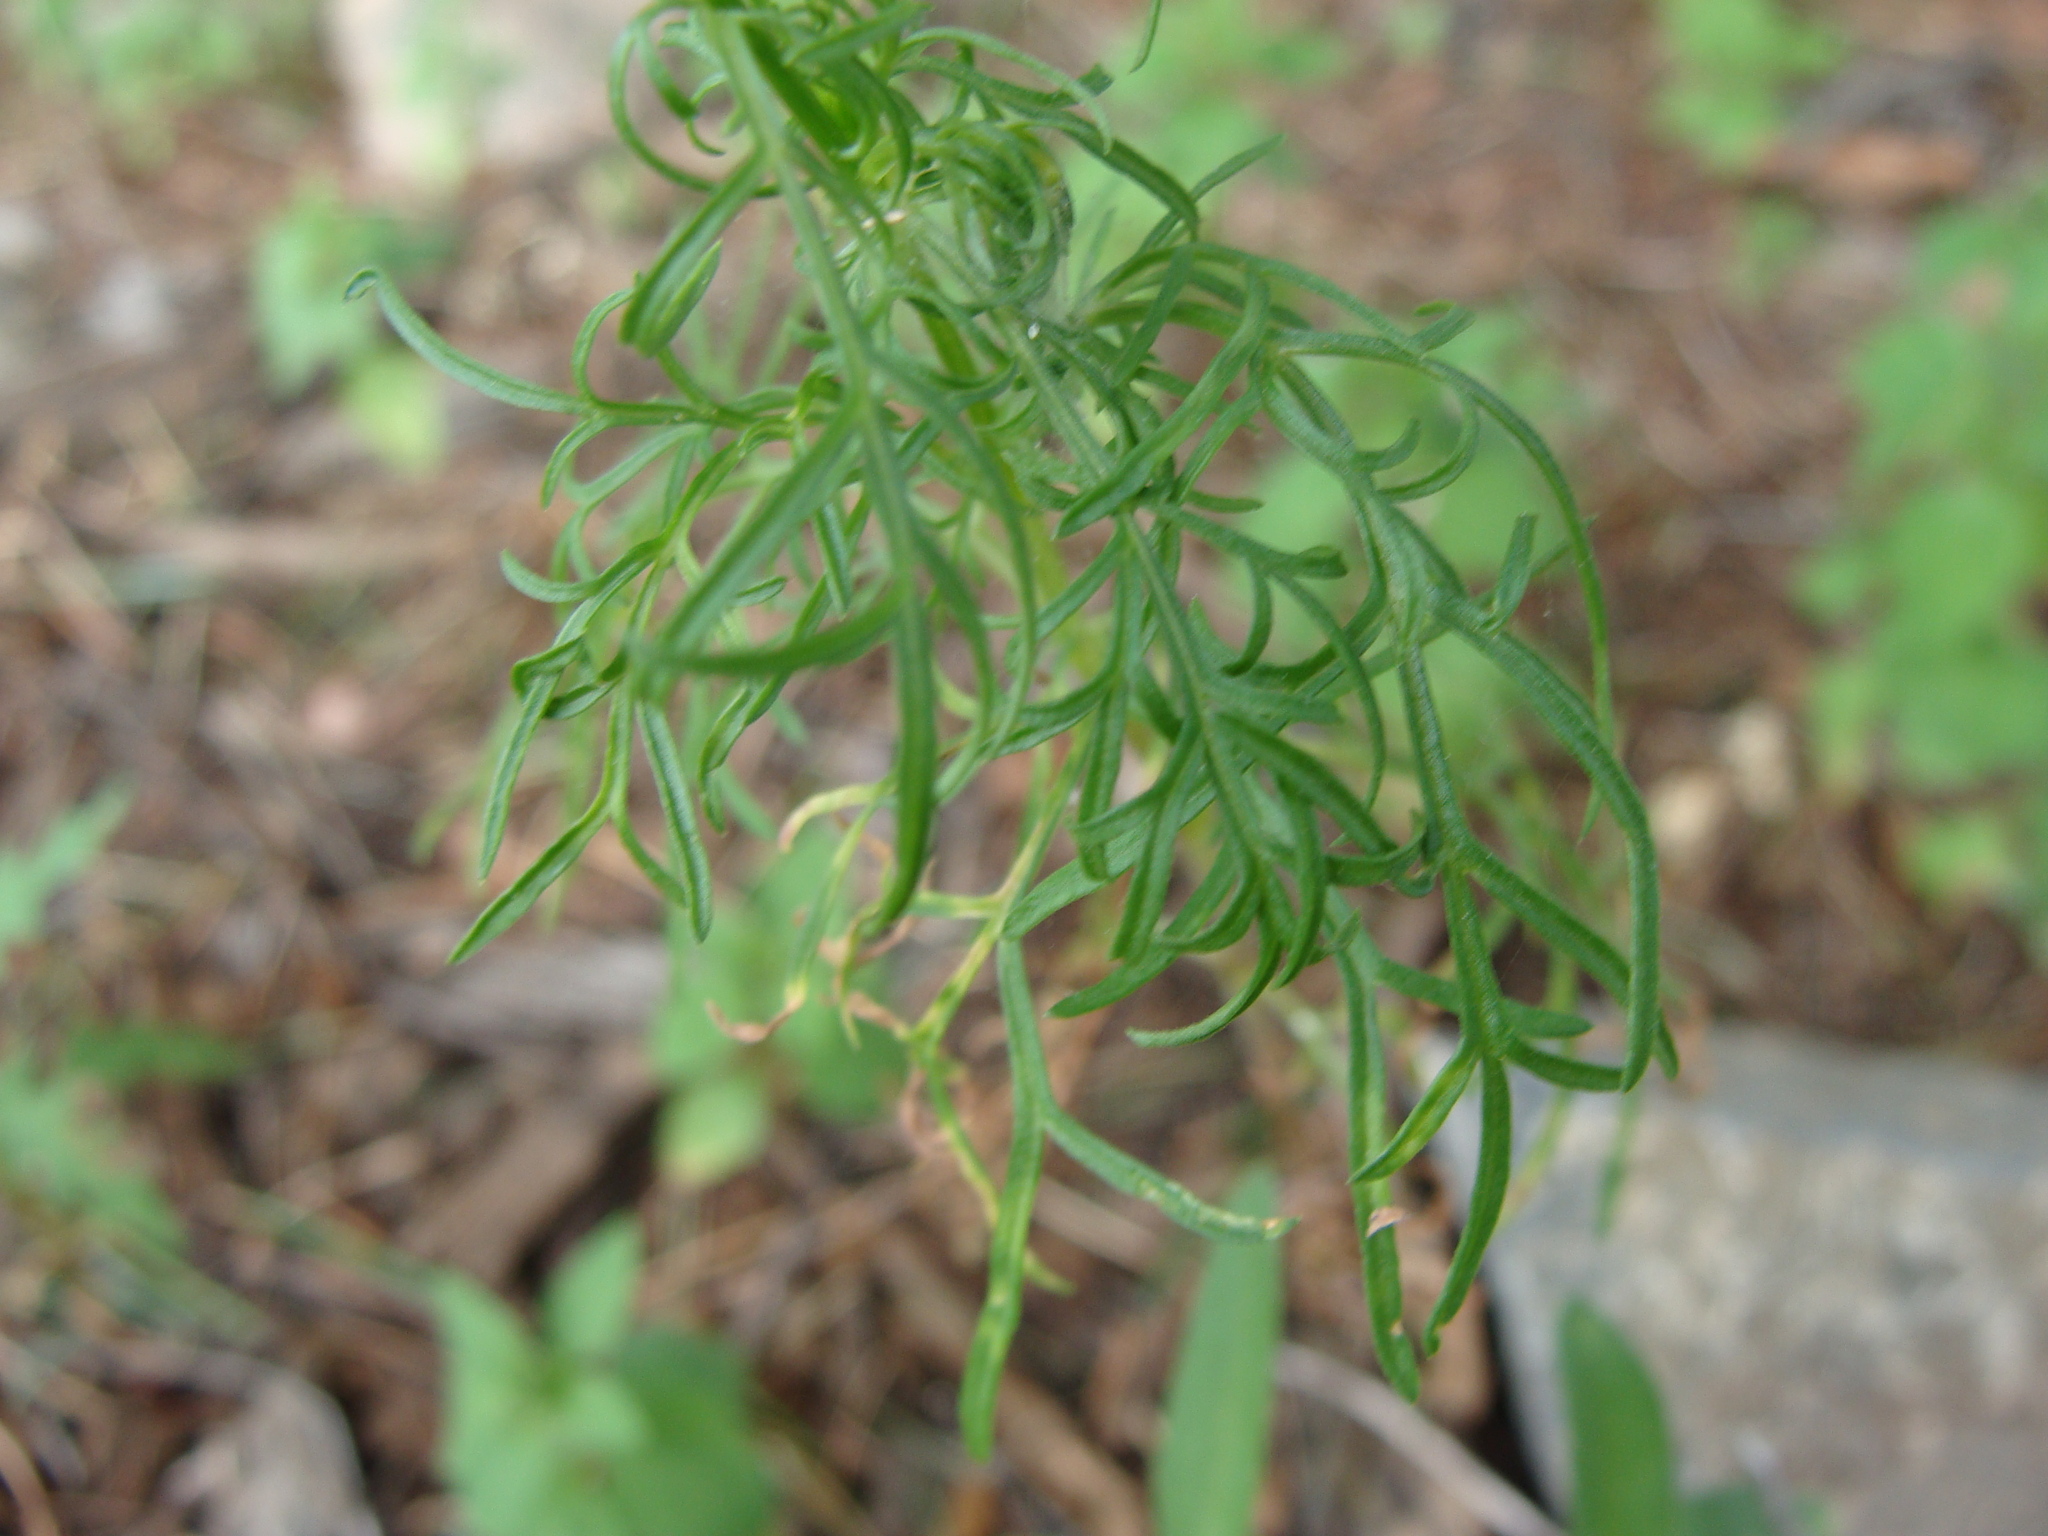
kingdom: Plantae
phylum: Tracheophyta
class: Magnoliopsida
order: Asterales
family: Asteraceae
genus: Cosmos
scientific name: Cosmos parviflorus
